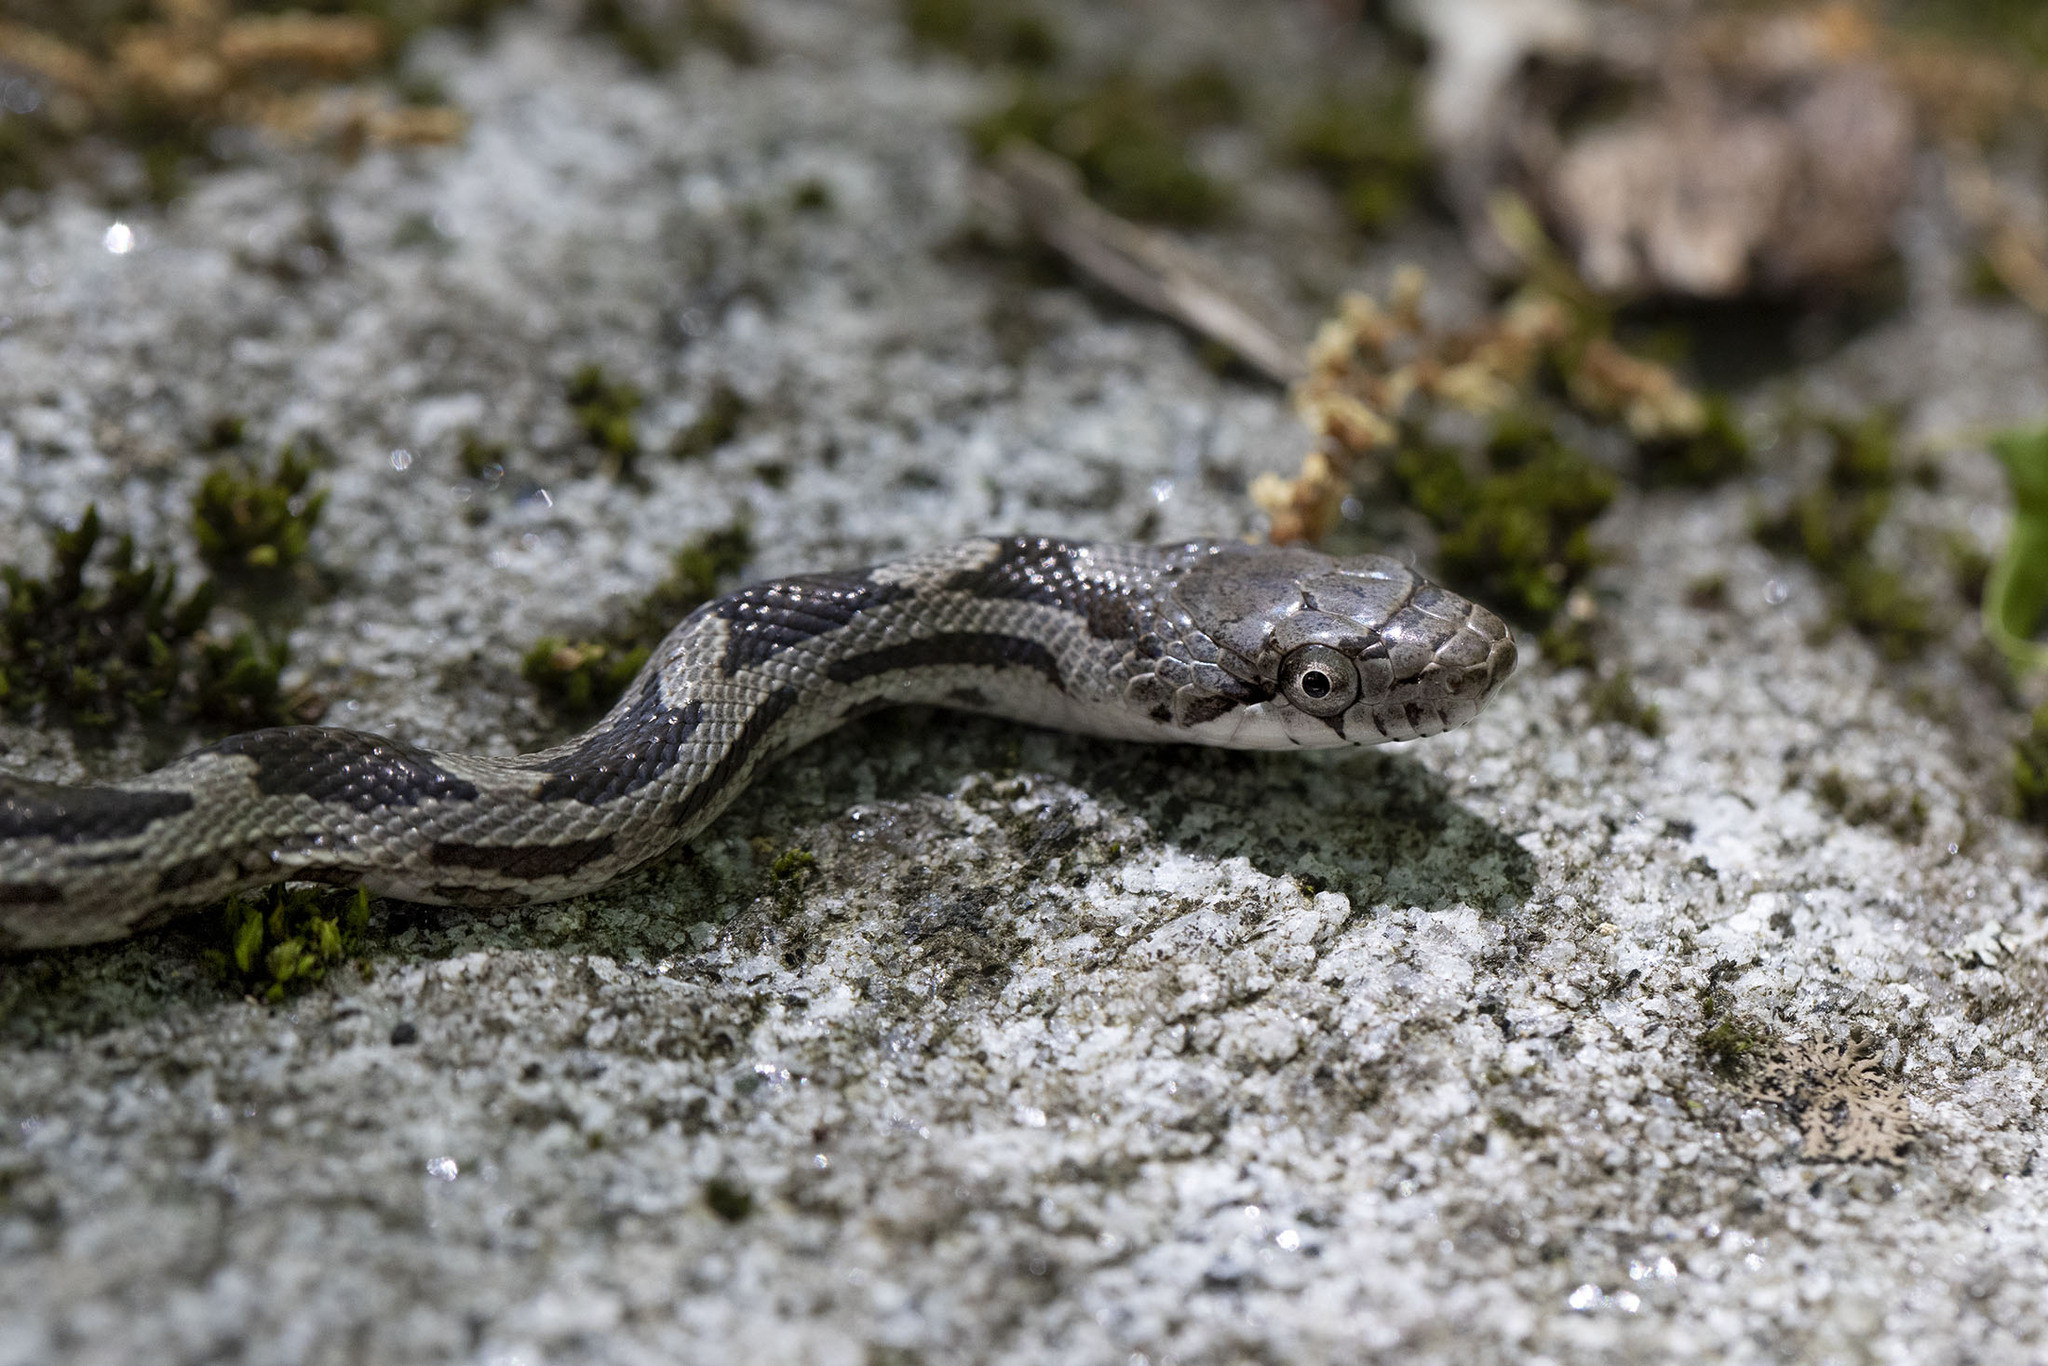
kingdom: Animalia
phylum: Chordata
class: Squamata
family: Colubridae
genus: Pantherophis
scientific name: Pantherophis alleghaniensis
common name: Eastern rat snake
